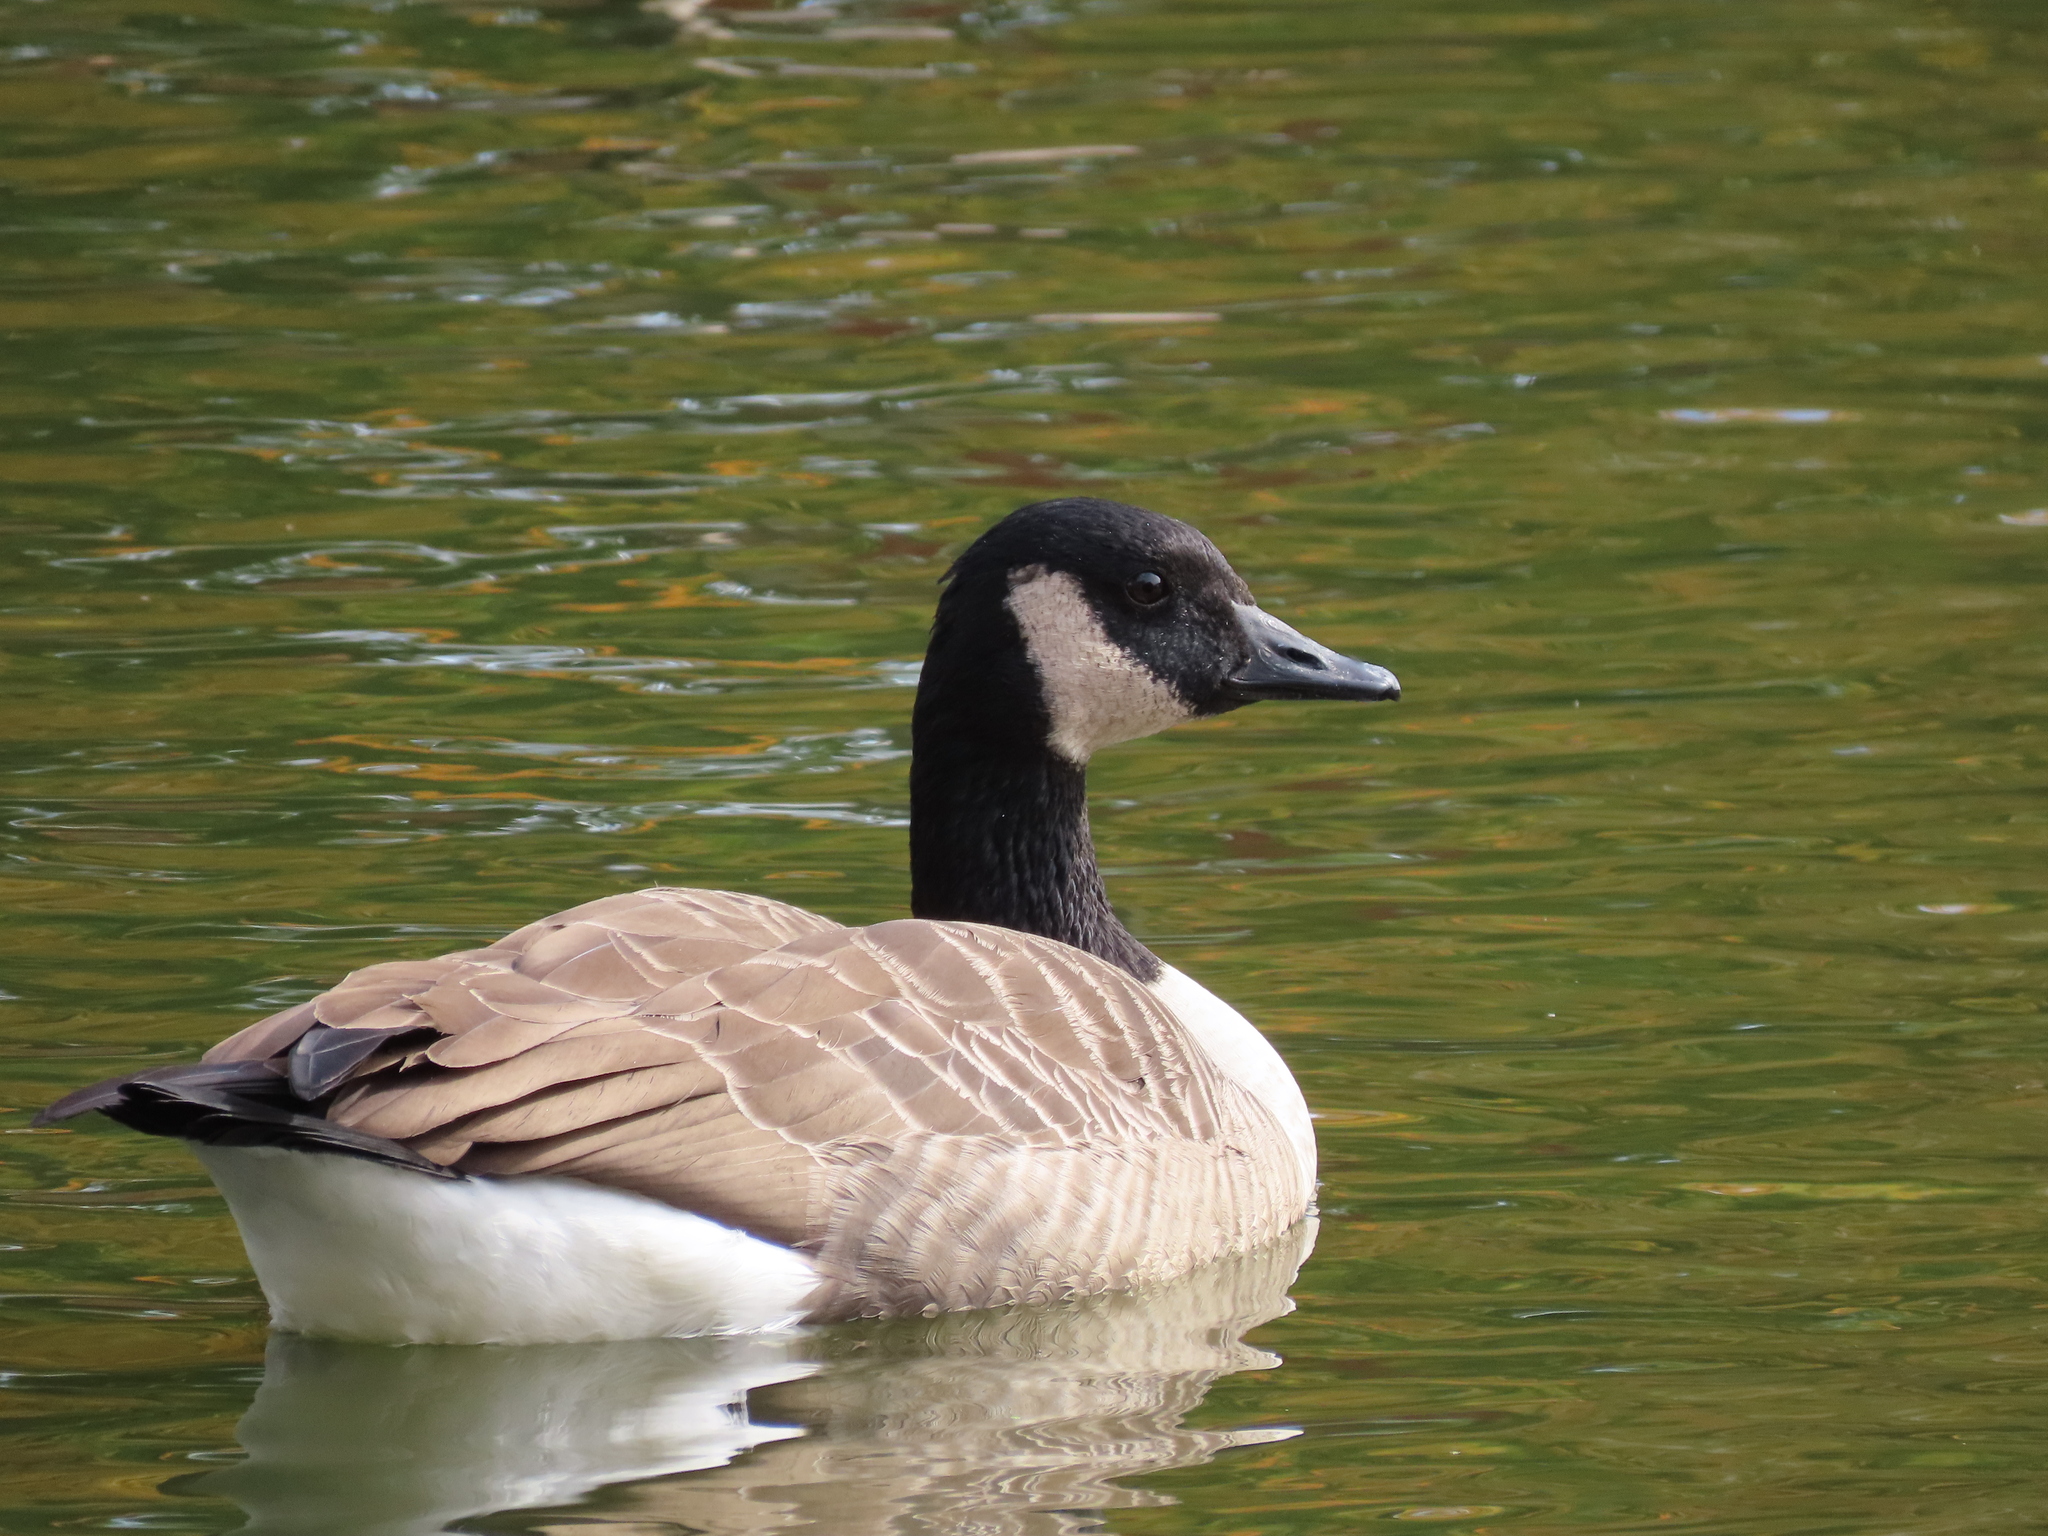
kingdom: Animalia
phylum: Chordata
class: Aves
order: Anseriformes
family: Anatidae
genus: Branta
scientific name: Branta canadensis
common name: Canada goose
